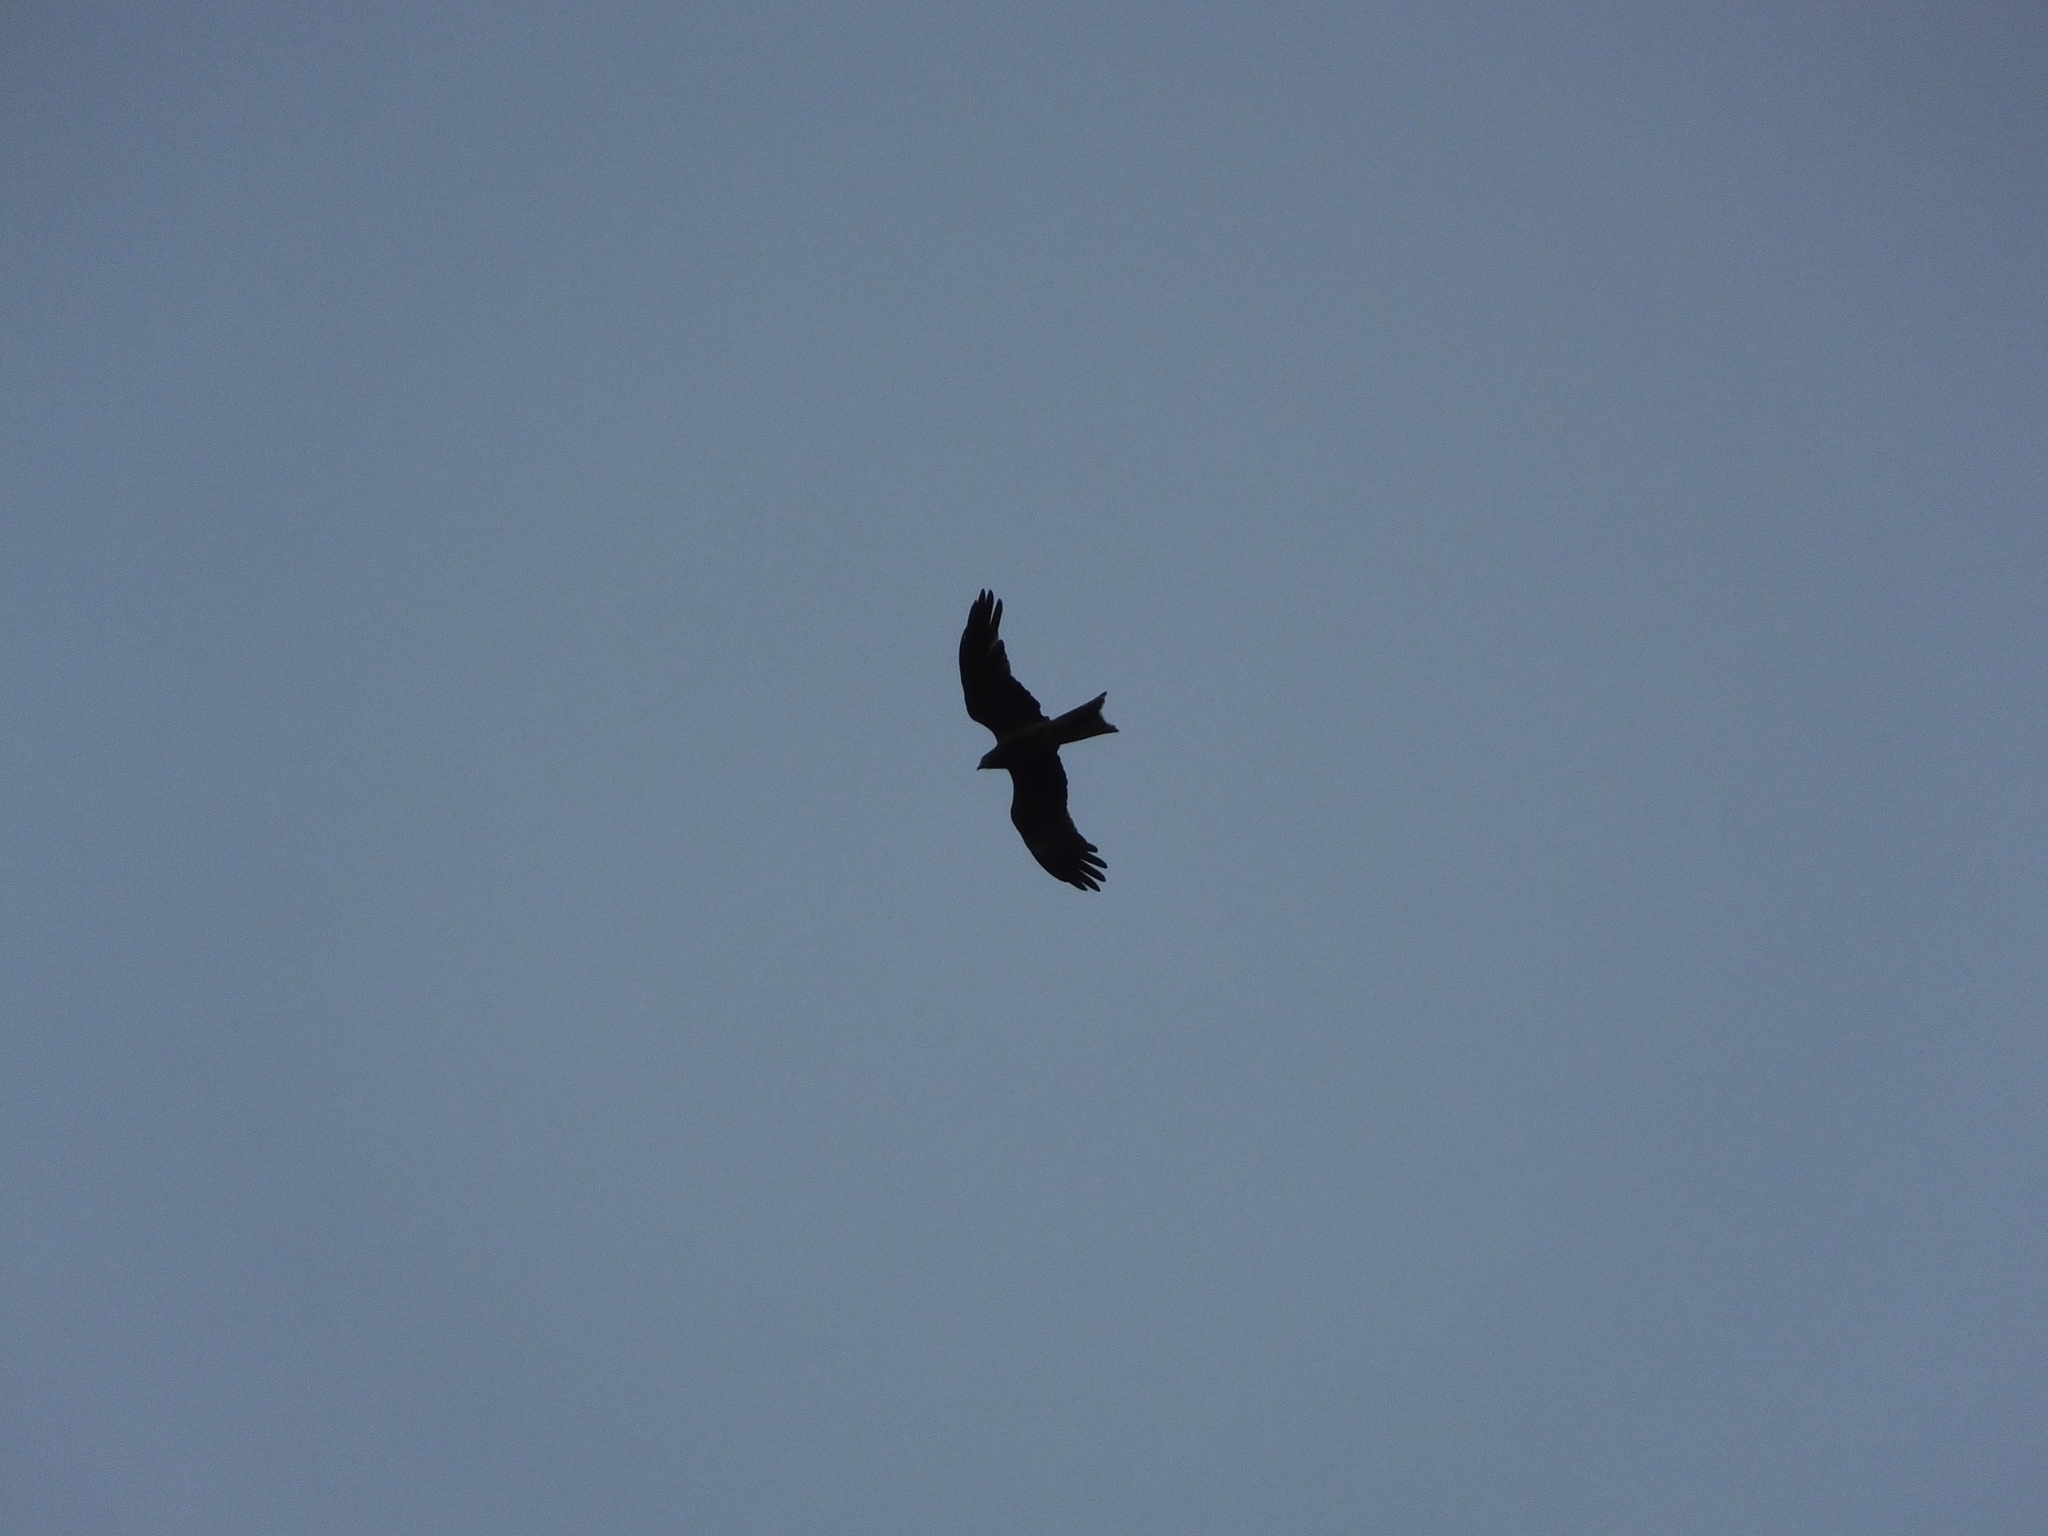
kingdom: Animalia
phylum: Chordata
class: Aves
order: Accipitriformes
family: Accipitridae
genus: Milvus
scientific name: Milvus migrans
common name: Black kite
